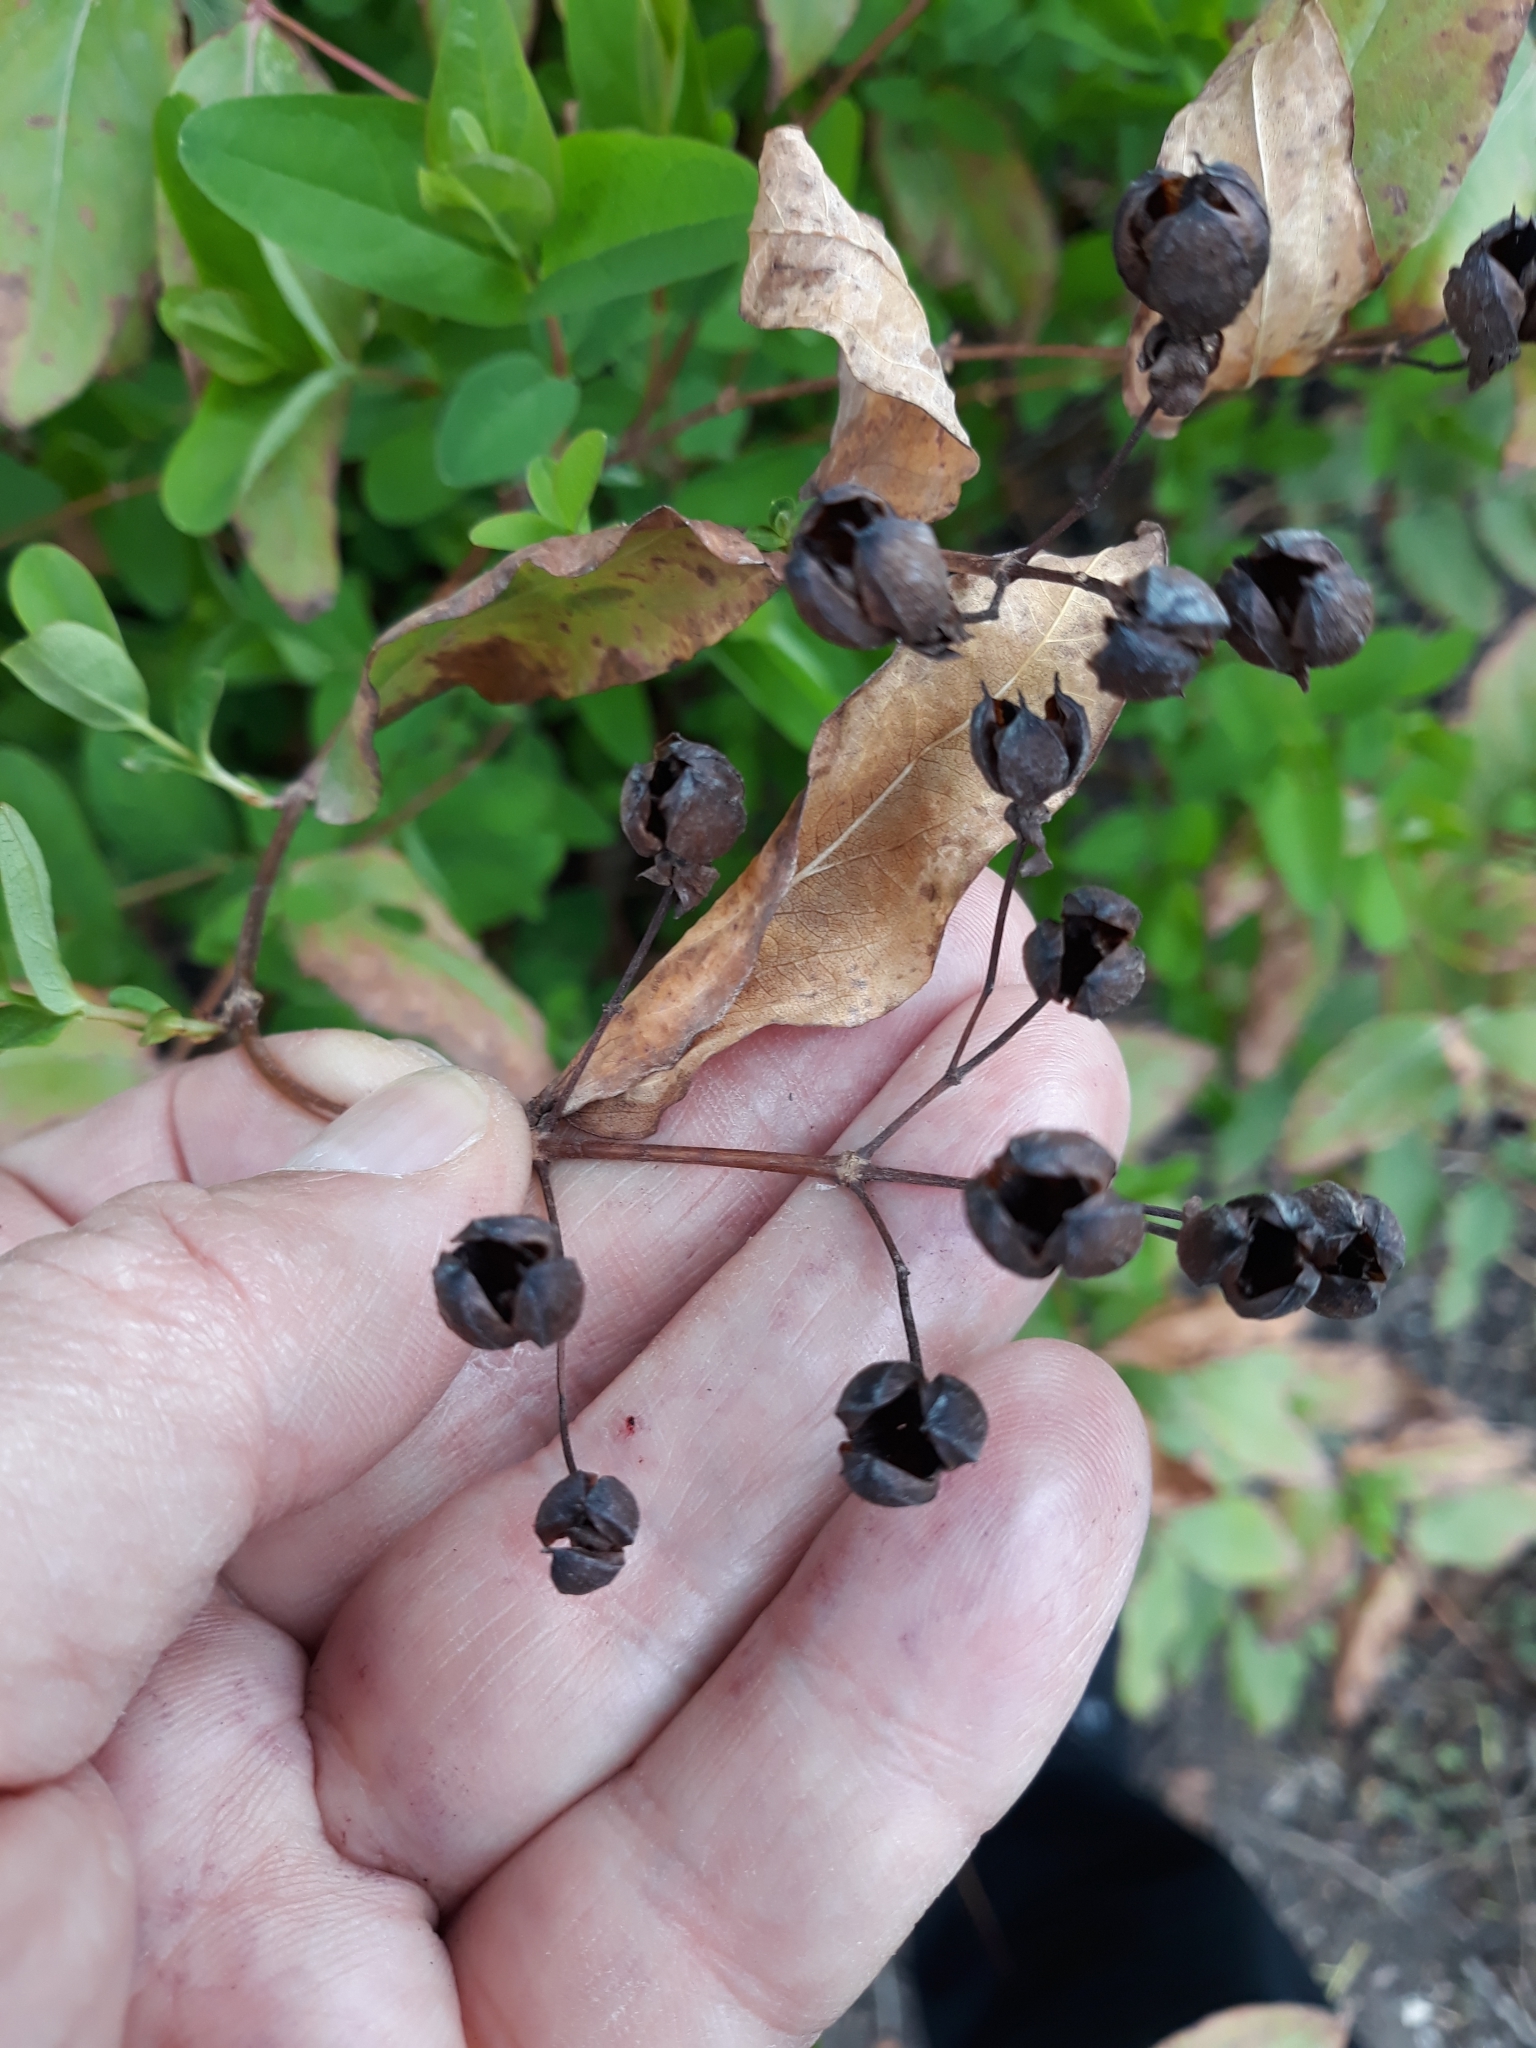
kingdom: Plantae
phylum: Tracheophyta
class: Magnoliopsida
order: Malpighiales
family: Hypericaceae
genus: Hypericum
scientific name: Hypericum androsaemum
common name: Sweet-amber
